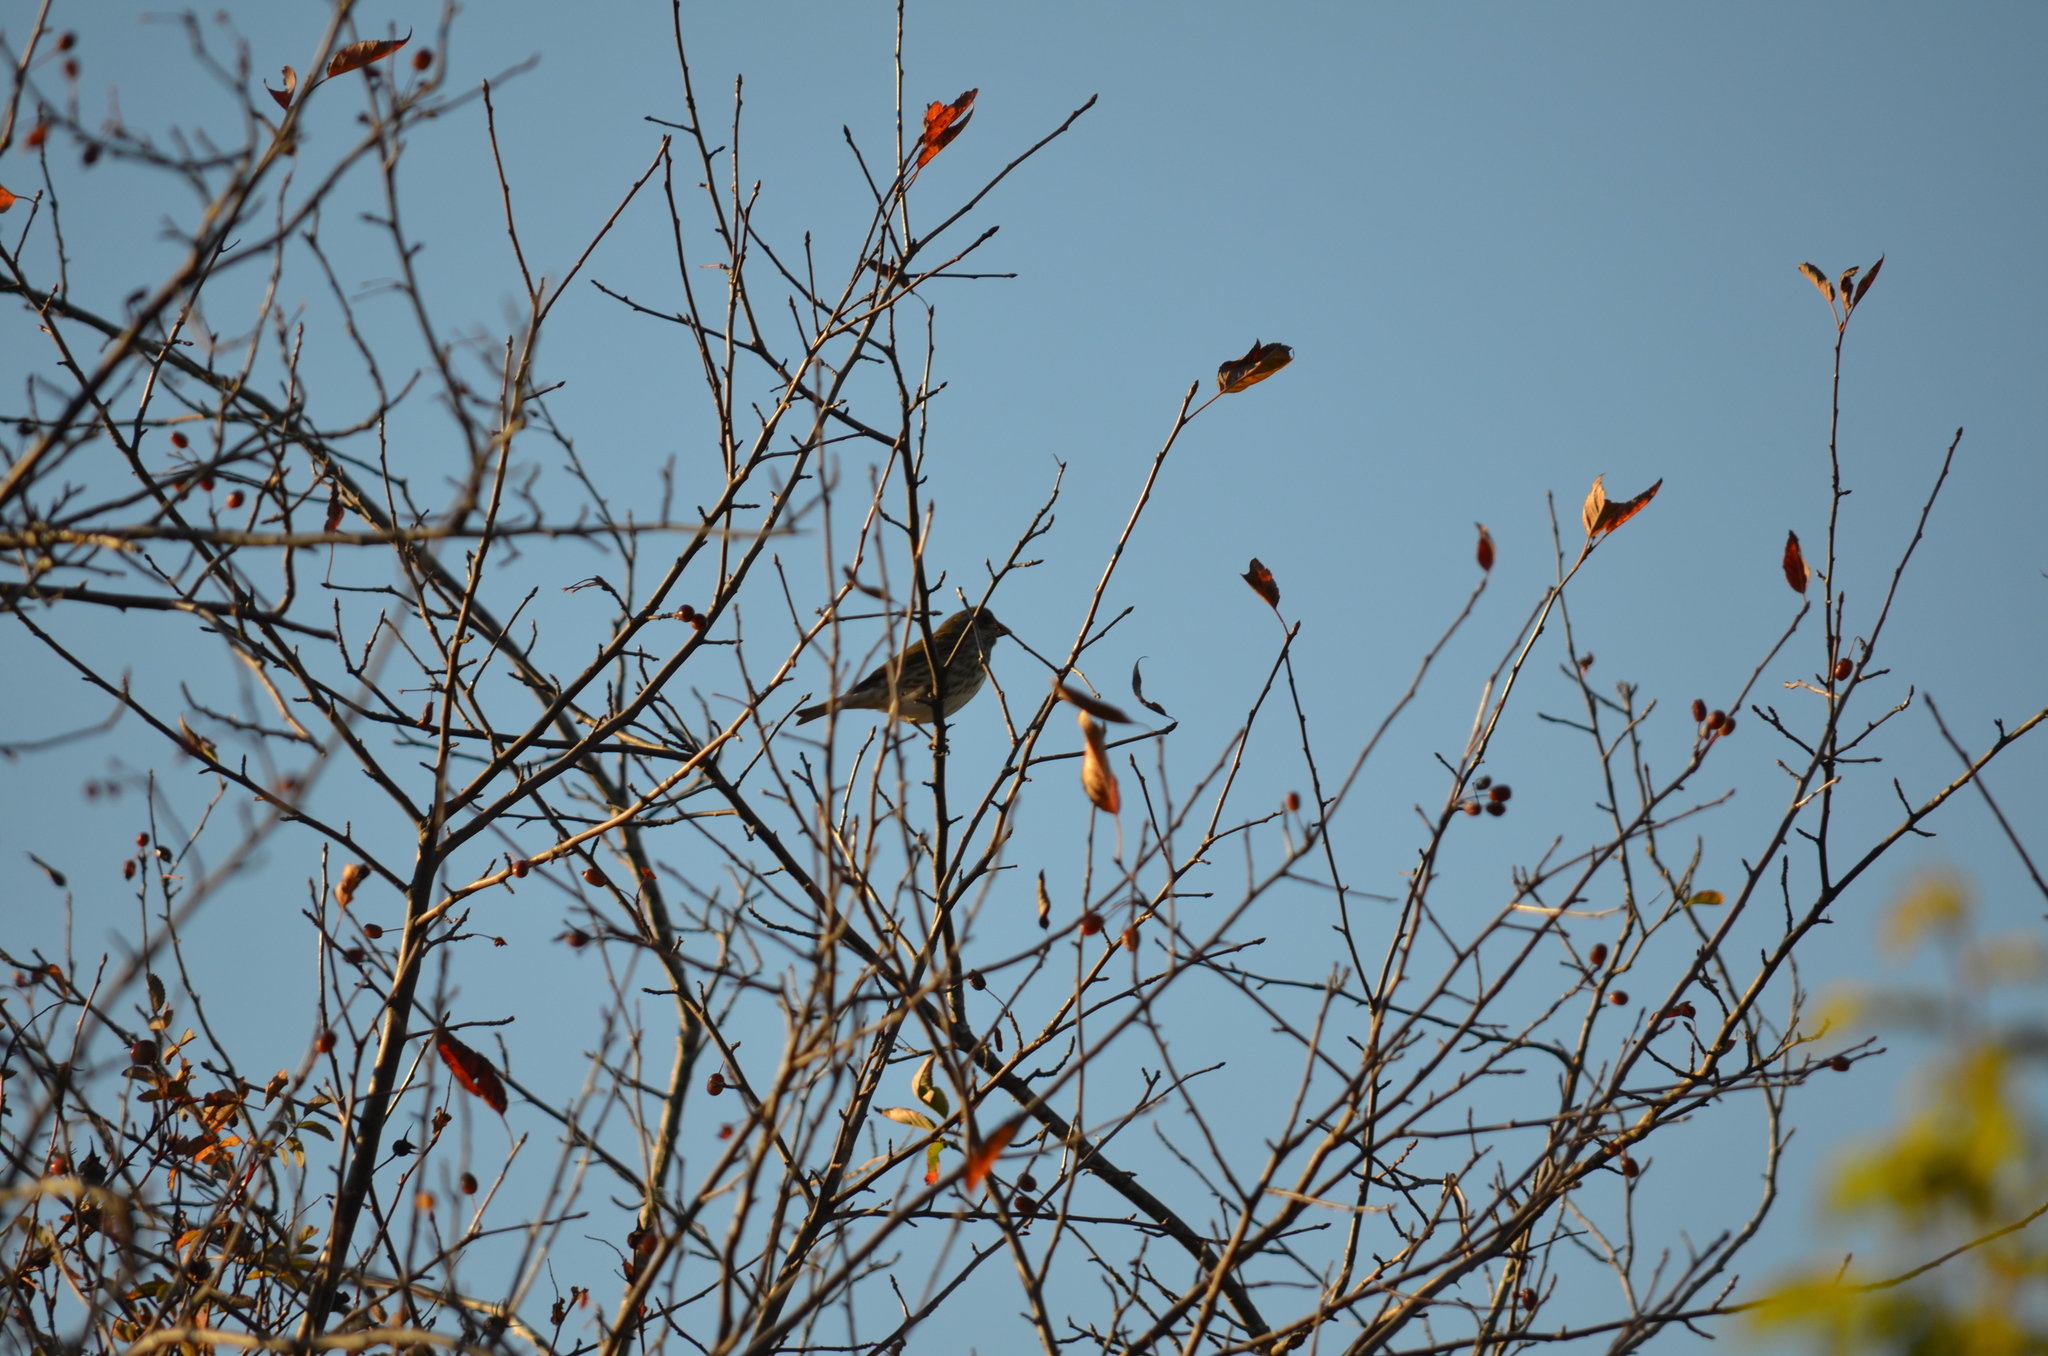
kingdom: Animalia
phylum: Chordata
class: Aves
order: Passeriformes
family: Fringillidae
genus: Haemorhous
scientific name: Haemorhous purpureus
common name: Purple finch
